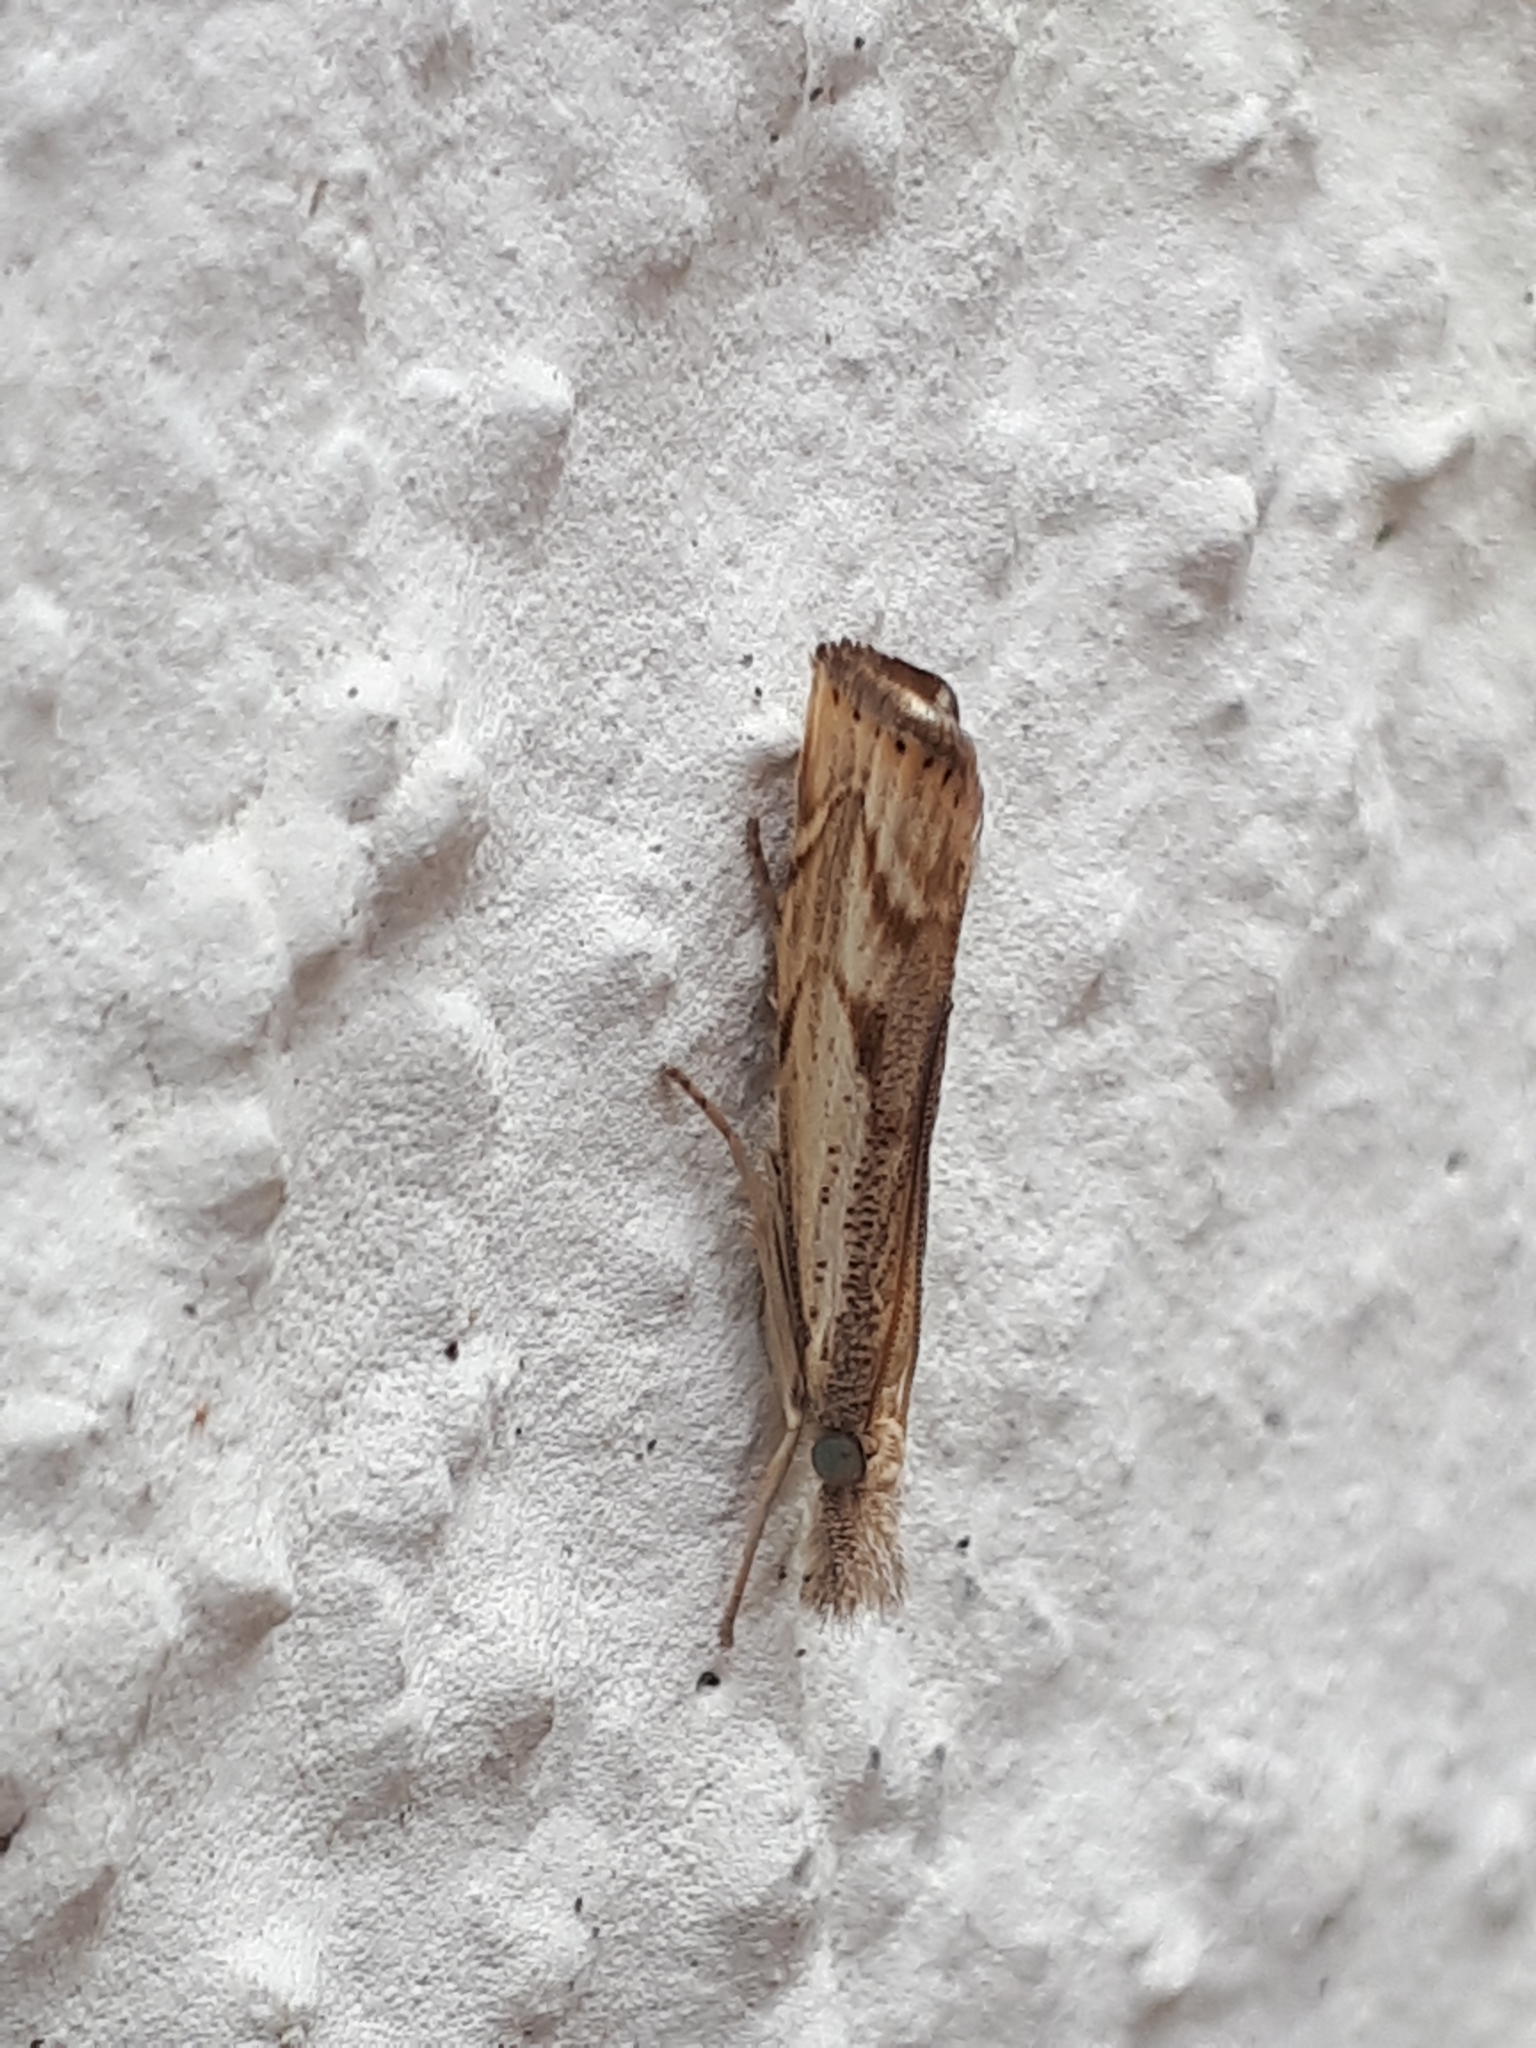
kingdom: Animalia
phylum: Arthropoda
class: Insecta
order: Lepidoptera
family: Crambidae
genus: Agriphila
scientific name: Agriphila geniculea
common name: Elbow-stripe grass-veneer
